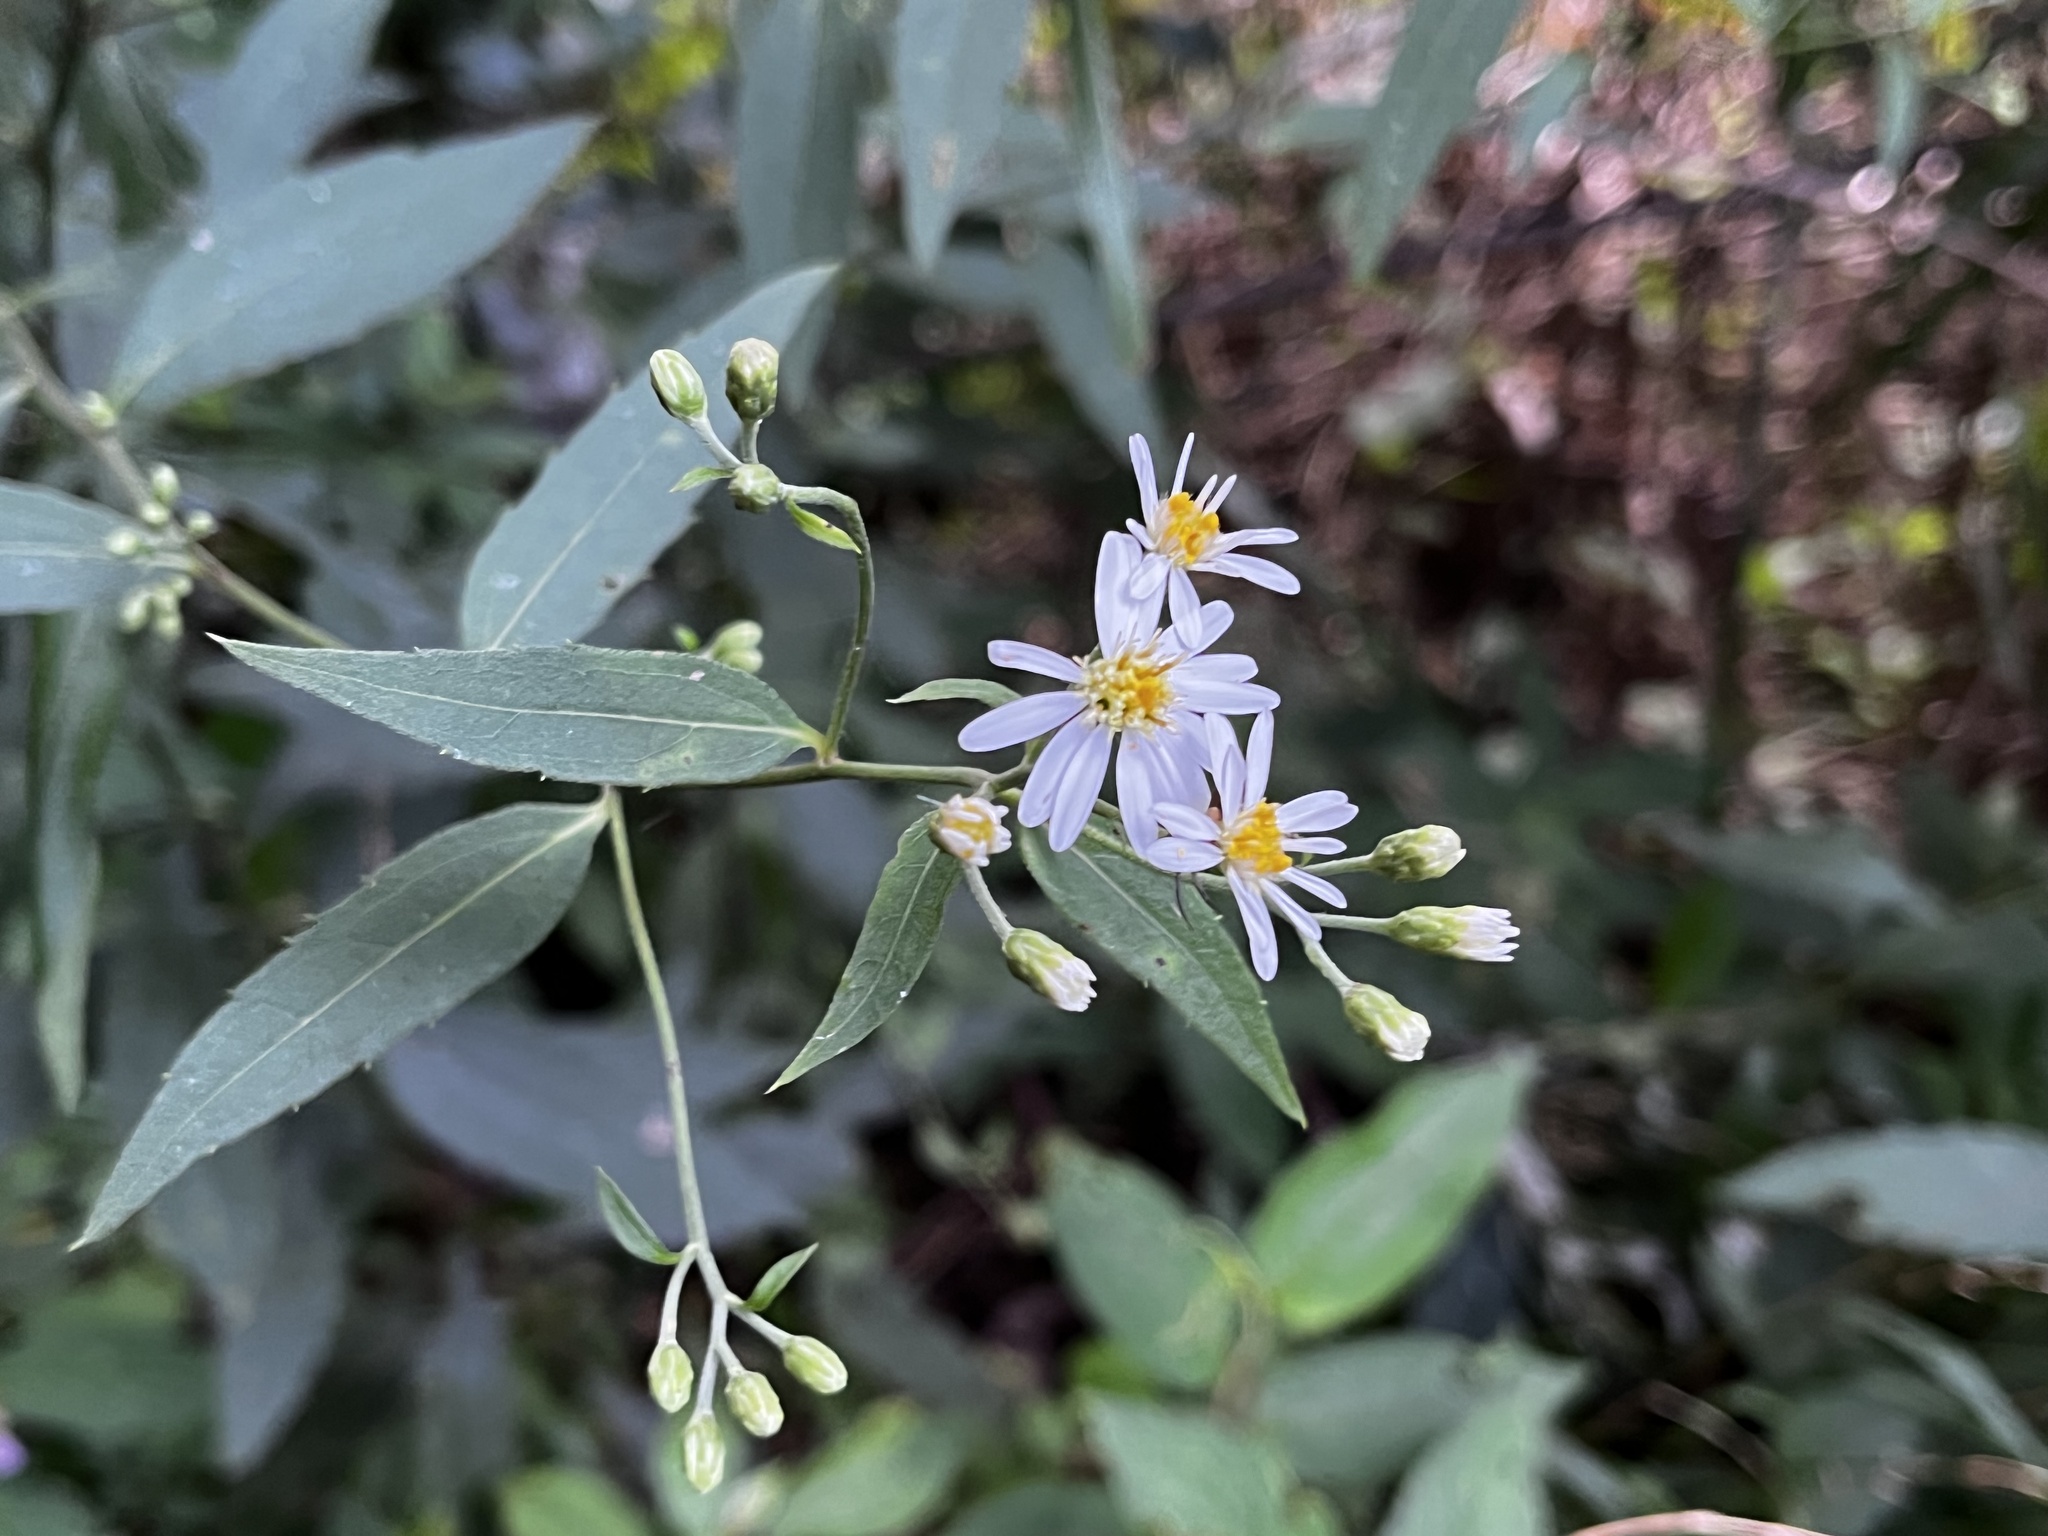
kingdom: Plantae
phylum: Tracheophyta
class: Magnoliopsida
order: Asterales
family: Asteraceae
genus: Aster
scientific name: Aster ageratoides
